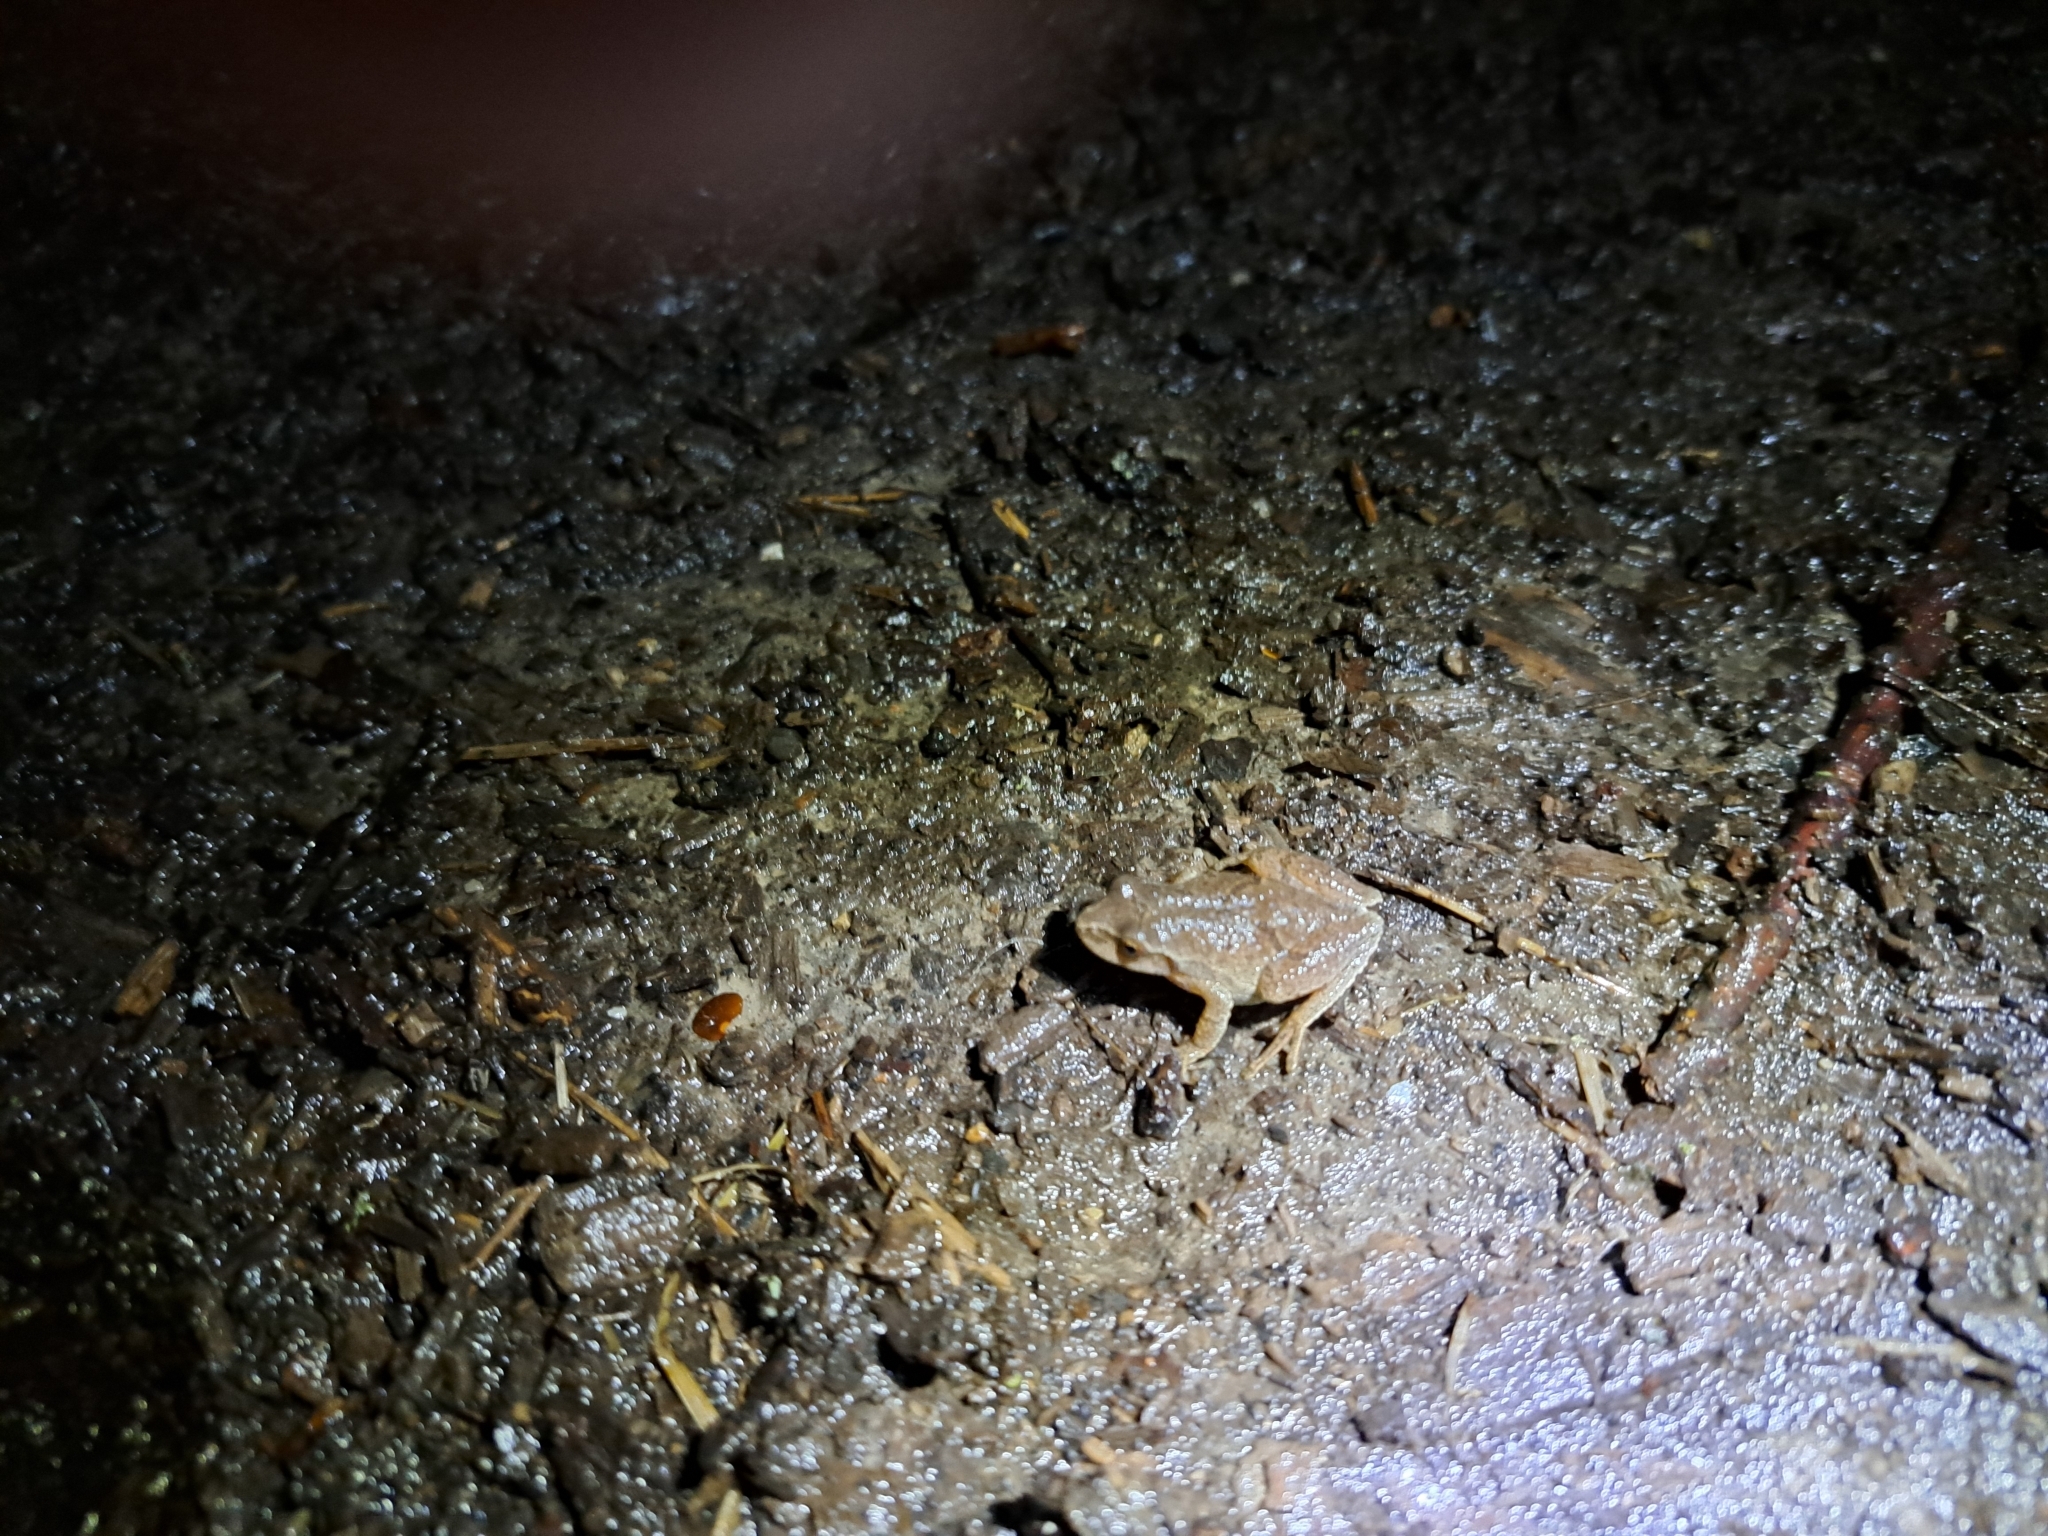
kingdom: Animalia
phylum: Chordata
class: Amphibia
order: Anura
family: Hylidae
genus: Pseudacris
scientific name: Pseudacris crucifer
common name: Spring peeper
